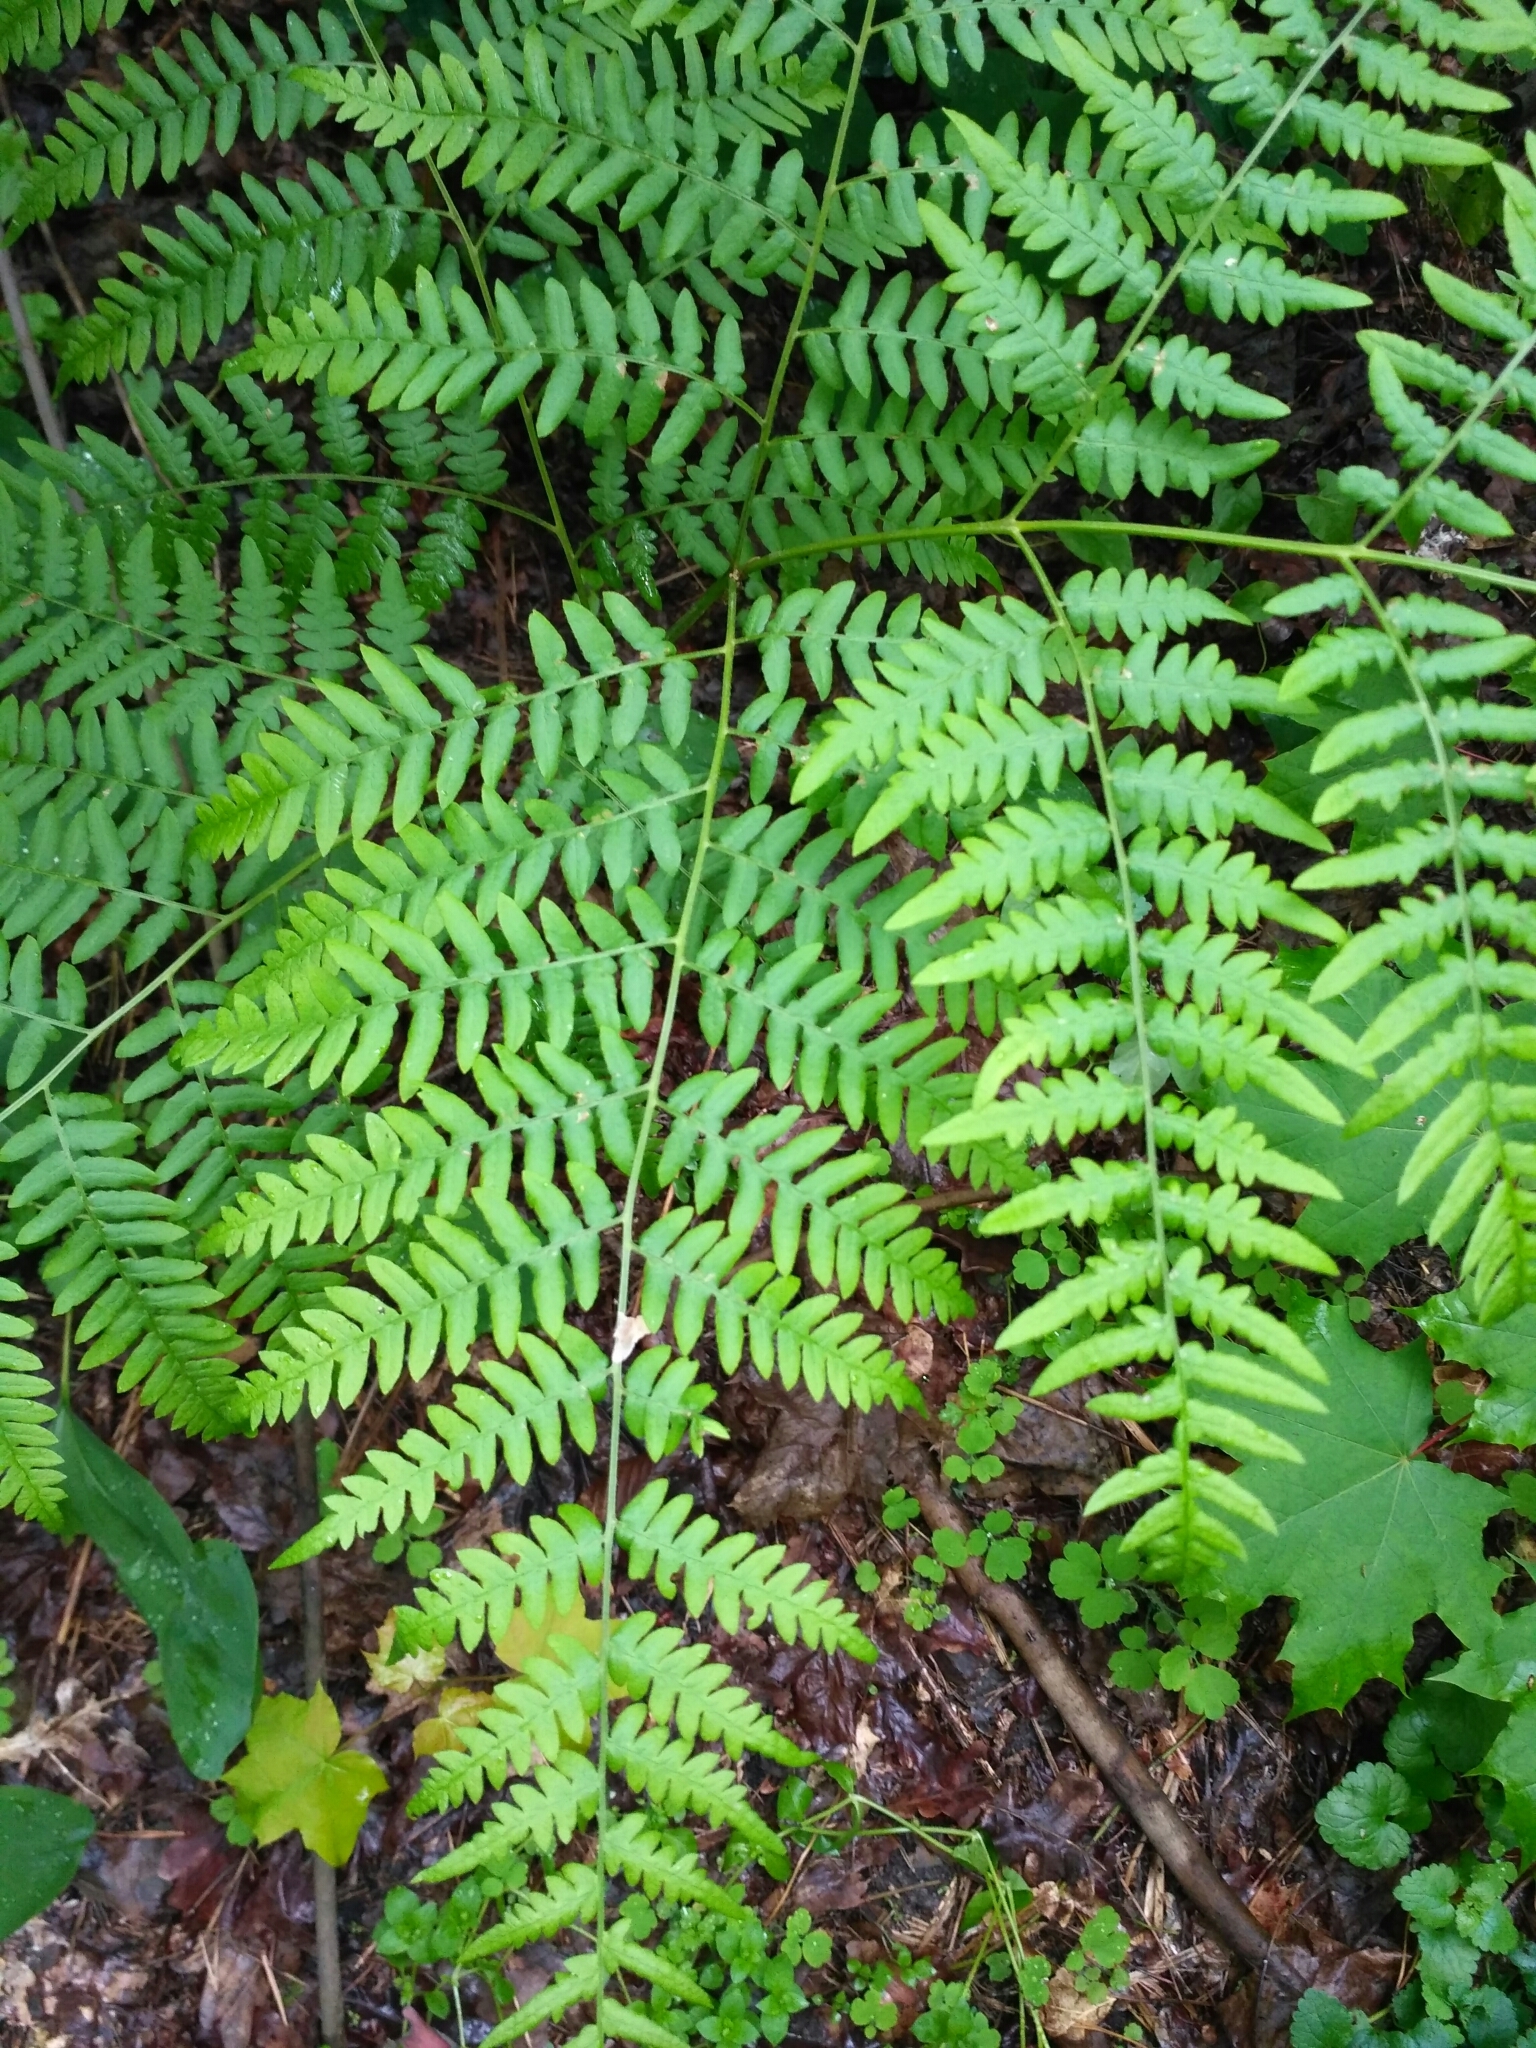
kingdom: Plantae
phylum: Tracheophyta
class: Polypodiopsida
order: Polypodiales
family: Dennstaedtiaceae
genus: Pteridium
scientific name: Pteridium aquilinum
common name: Bracken
